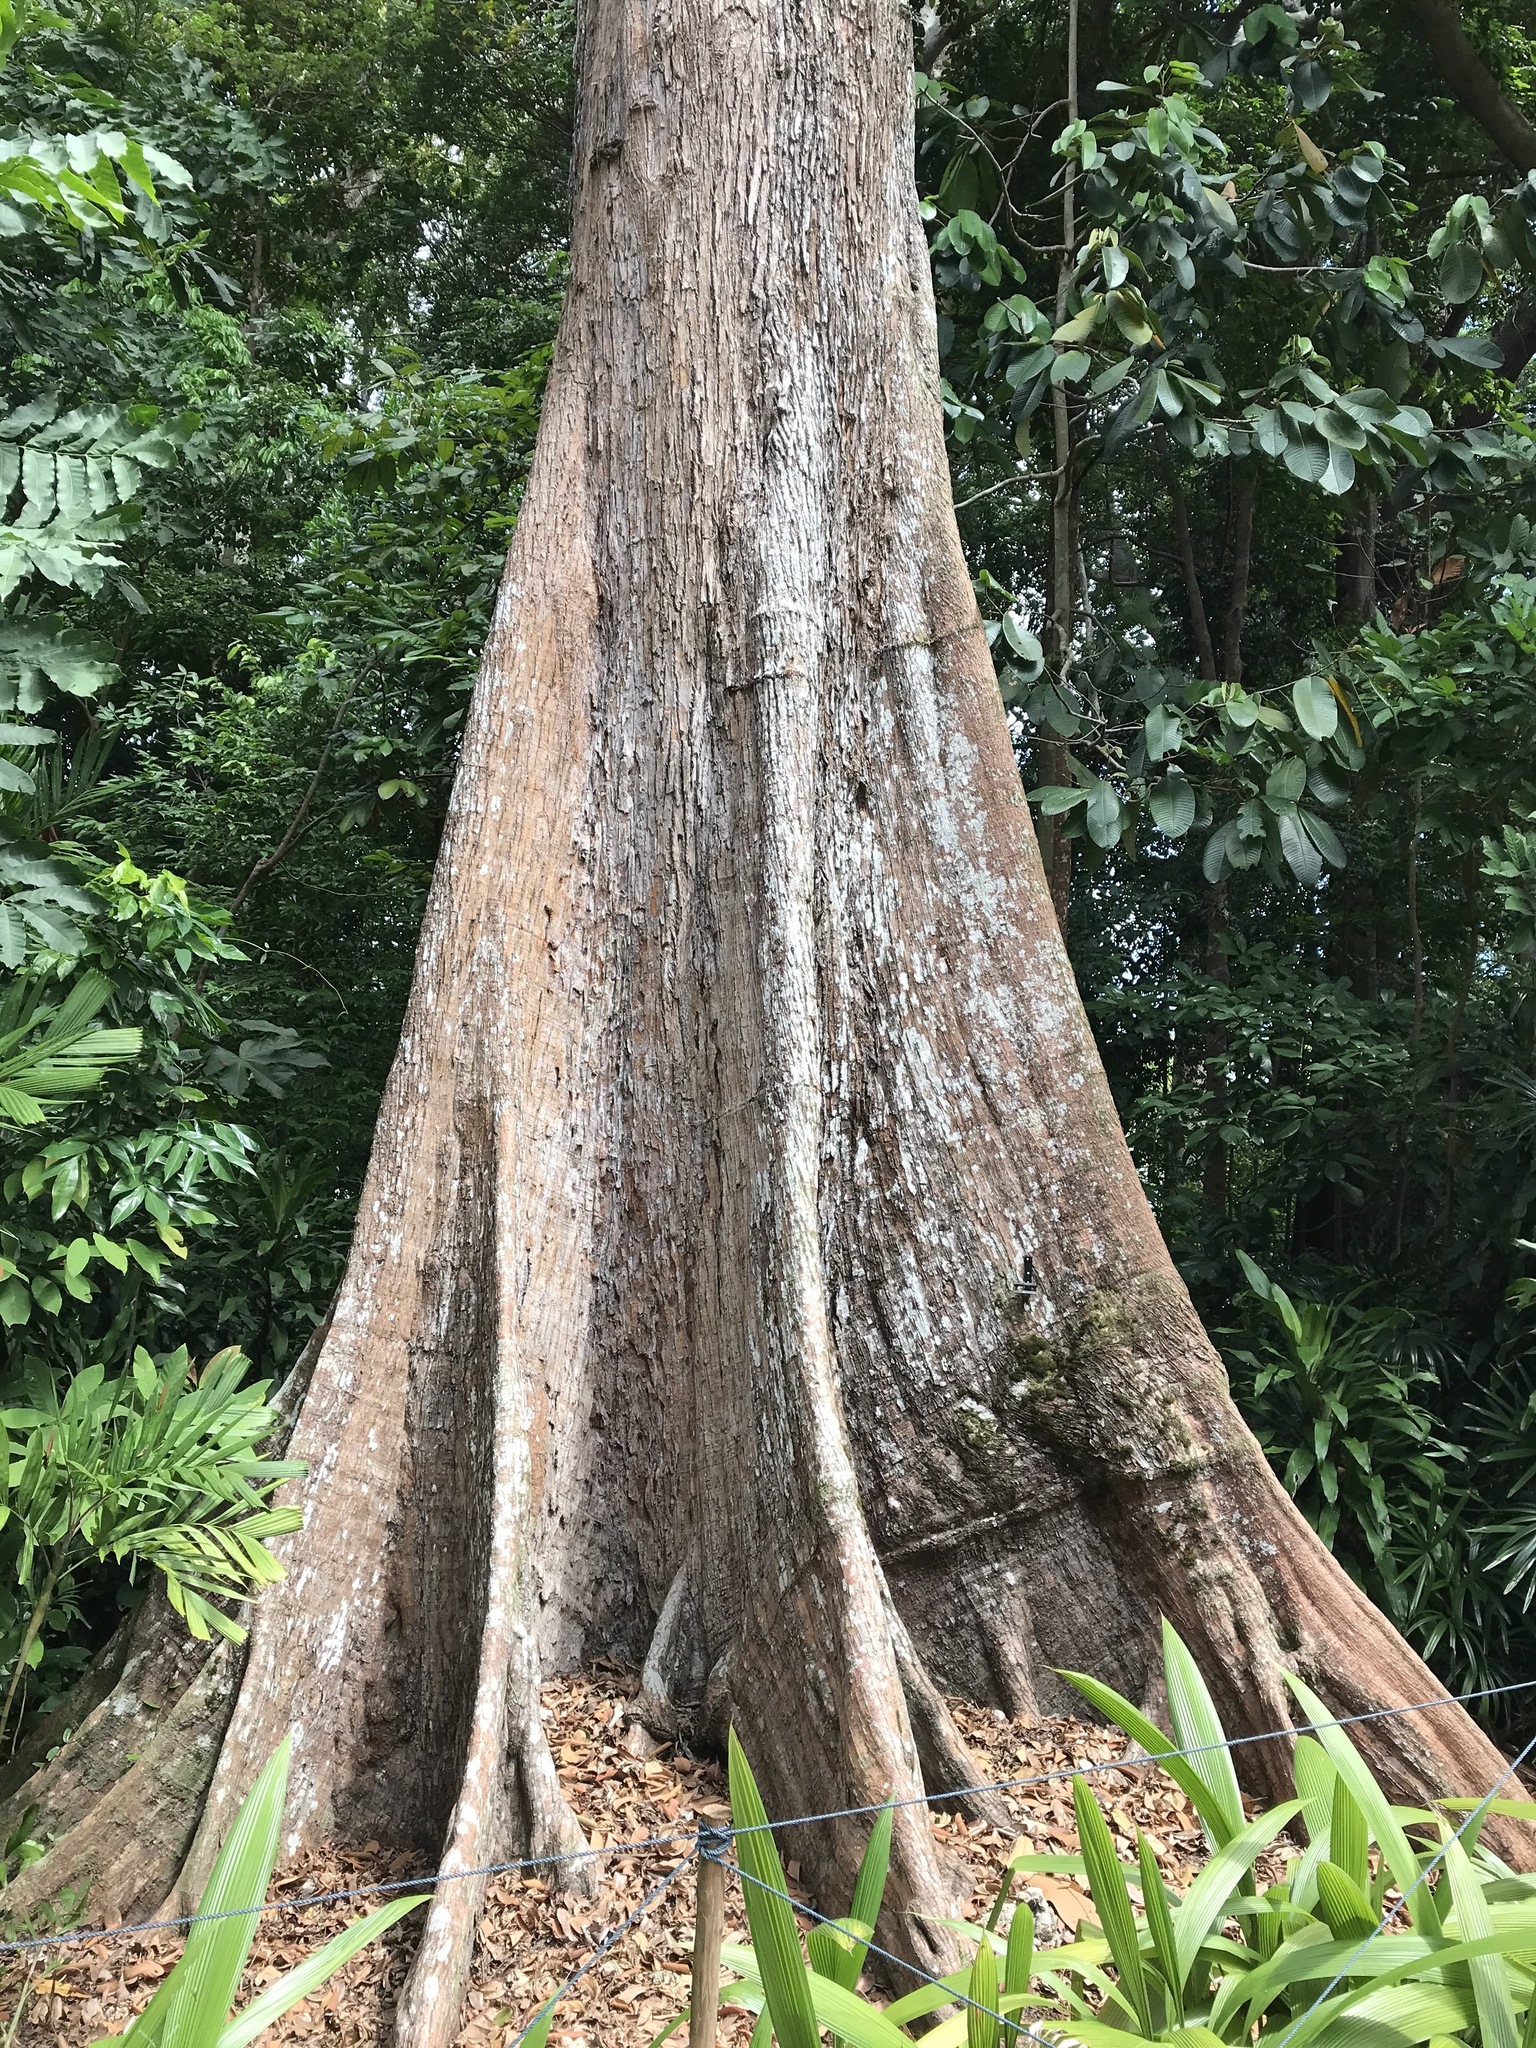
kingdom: Plantae
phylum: Tracheophyta
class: Magnoliopsida
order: Myrtales
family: Combretaceae
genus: Terminalia
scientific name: Terminalia subspathulata
